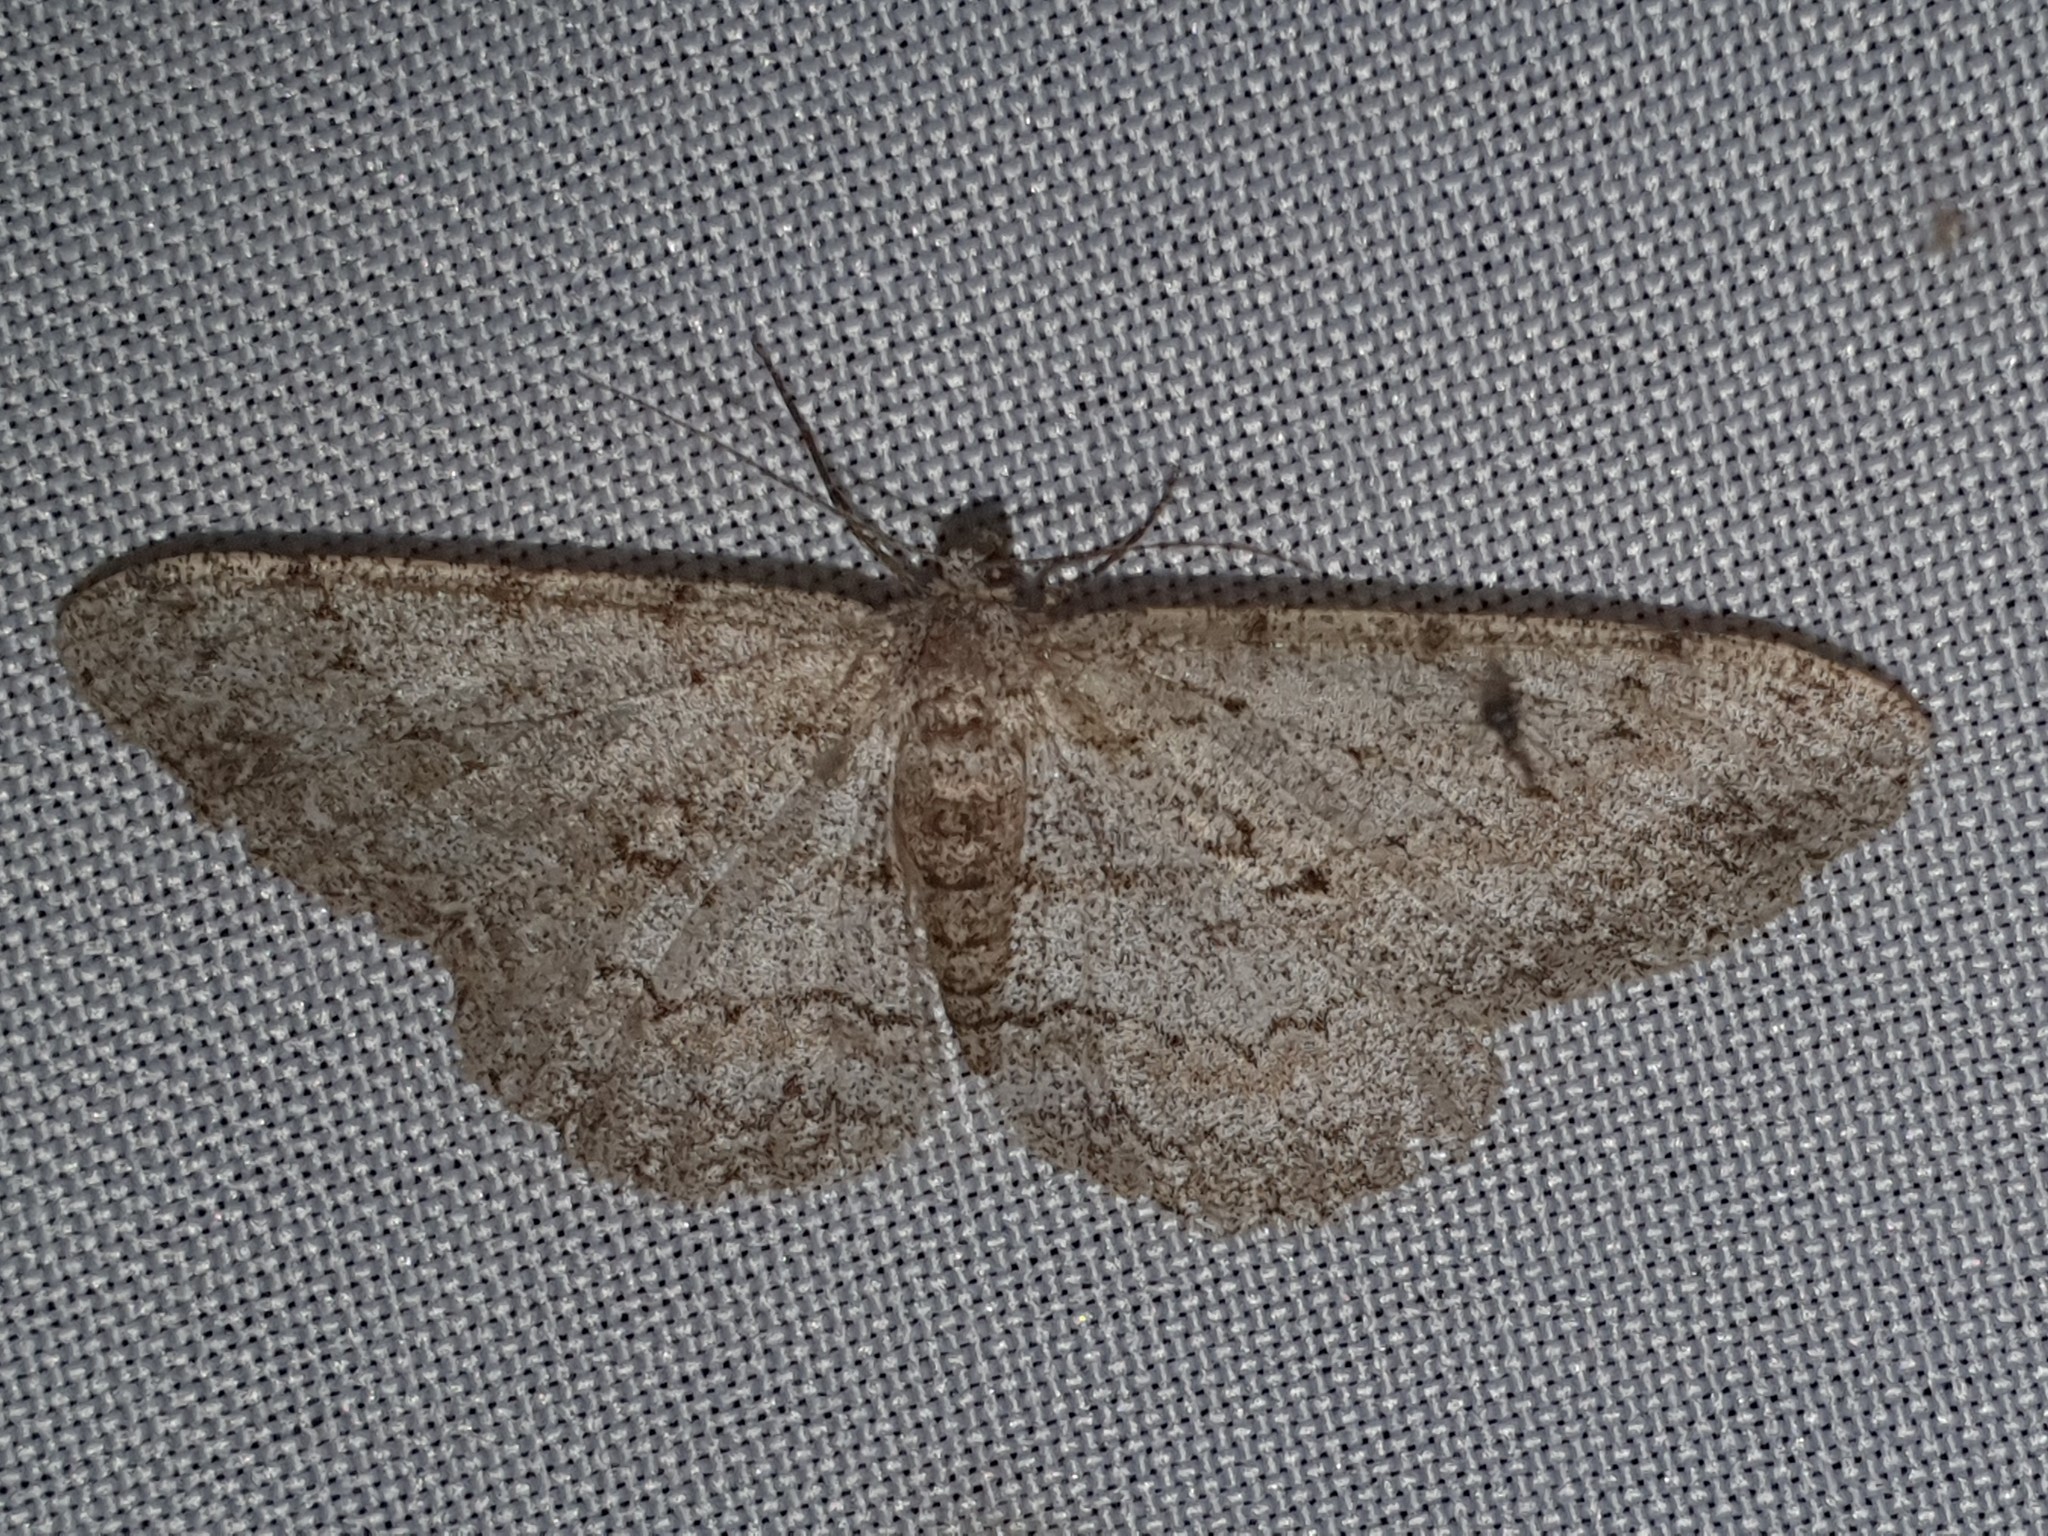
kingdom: Animalia
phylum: Arthropoda
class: Insecta
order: Lepidoptera
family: Geometridae
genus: Hypomecis
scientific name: Hypomecis punctinalis
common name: Pale oak beauty
